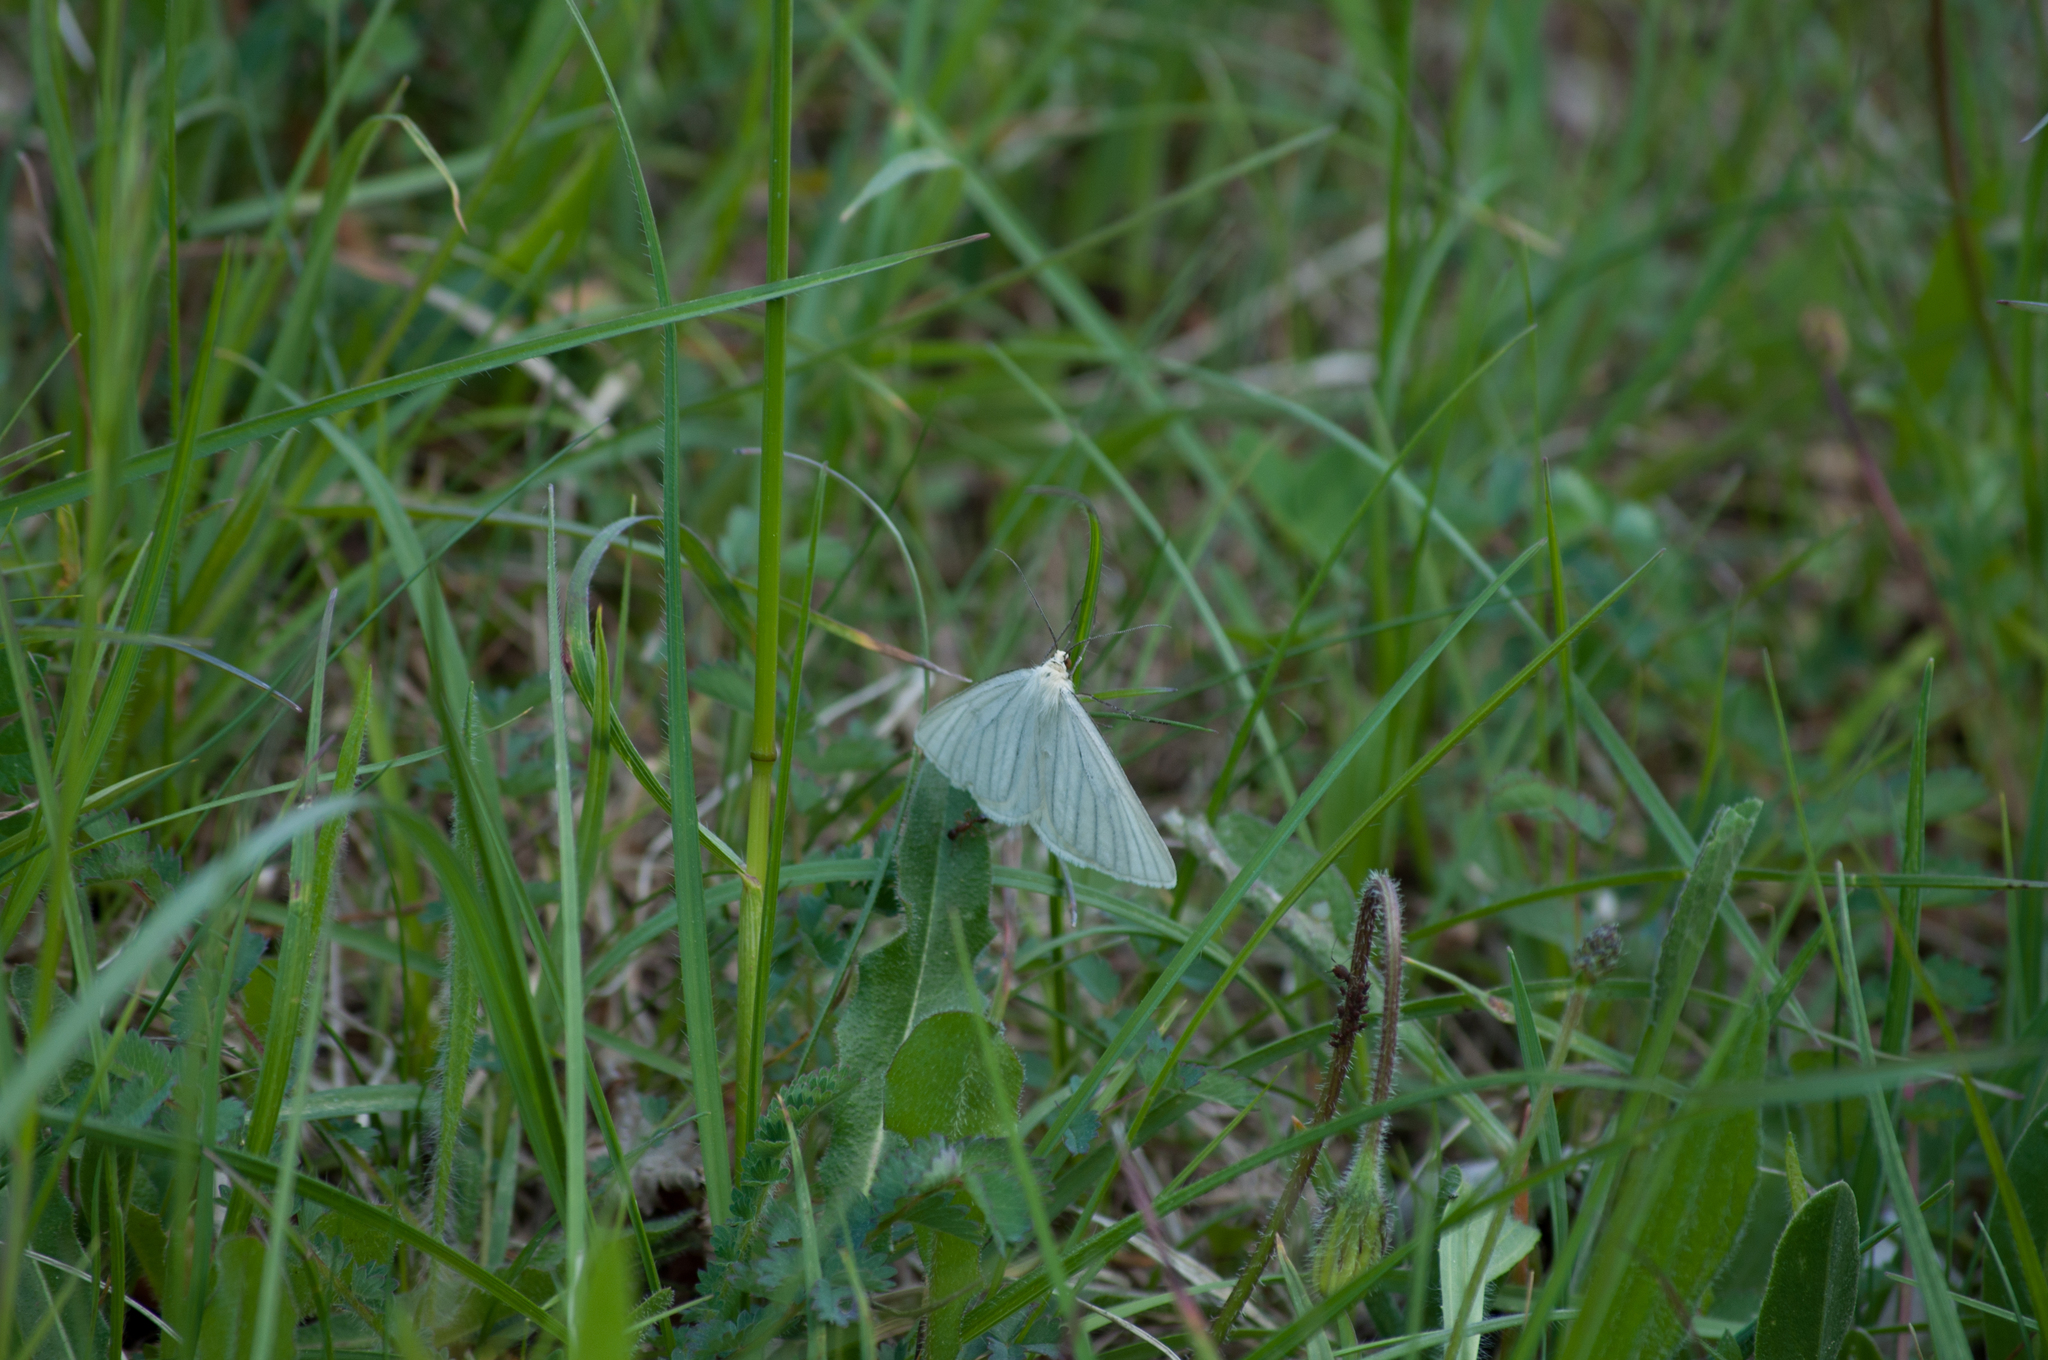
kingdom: Animalia
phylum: Arthropoda
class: Insecta
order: Lepidoptera
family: Geometridae
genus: Siona
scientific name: Siona lineata
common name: Black-veined moth
